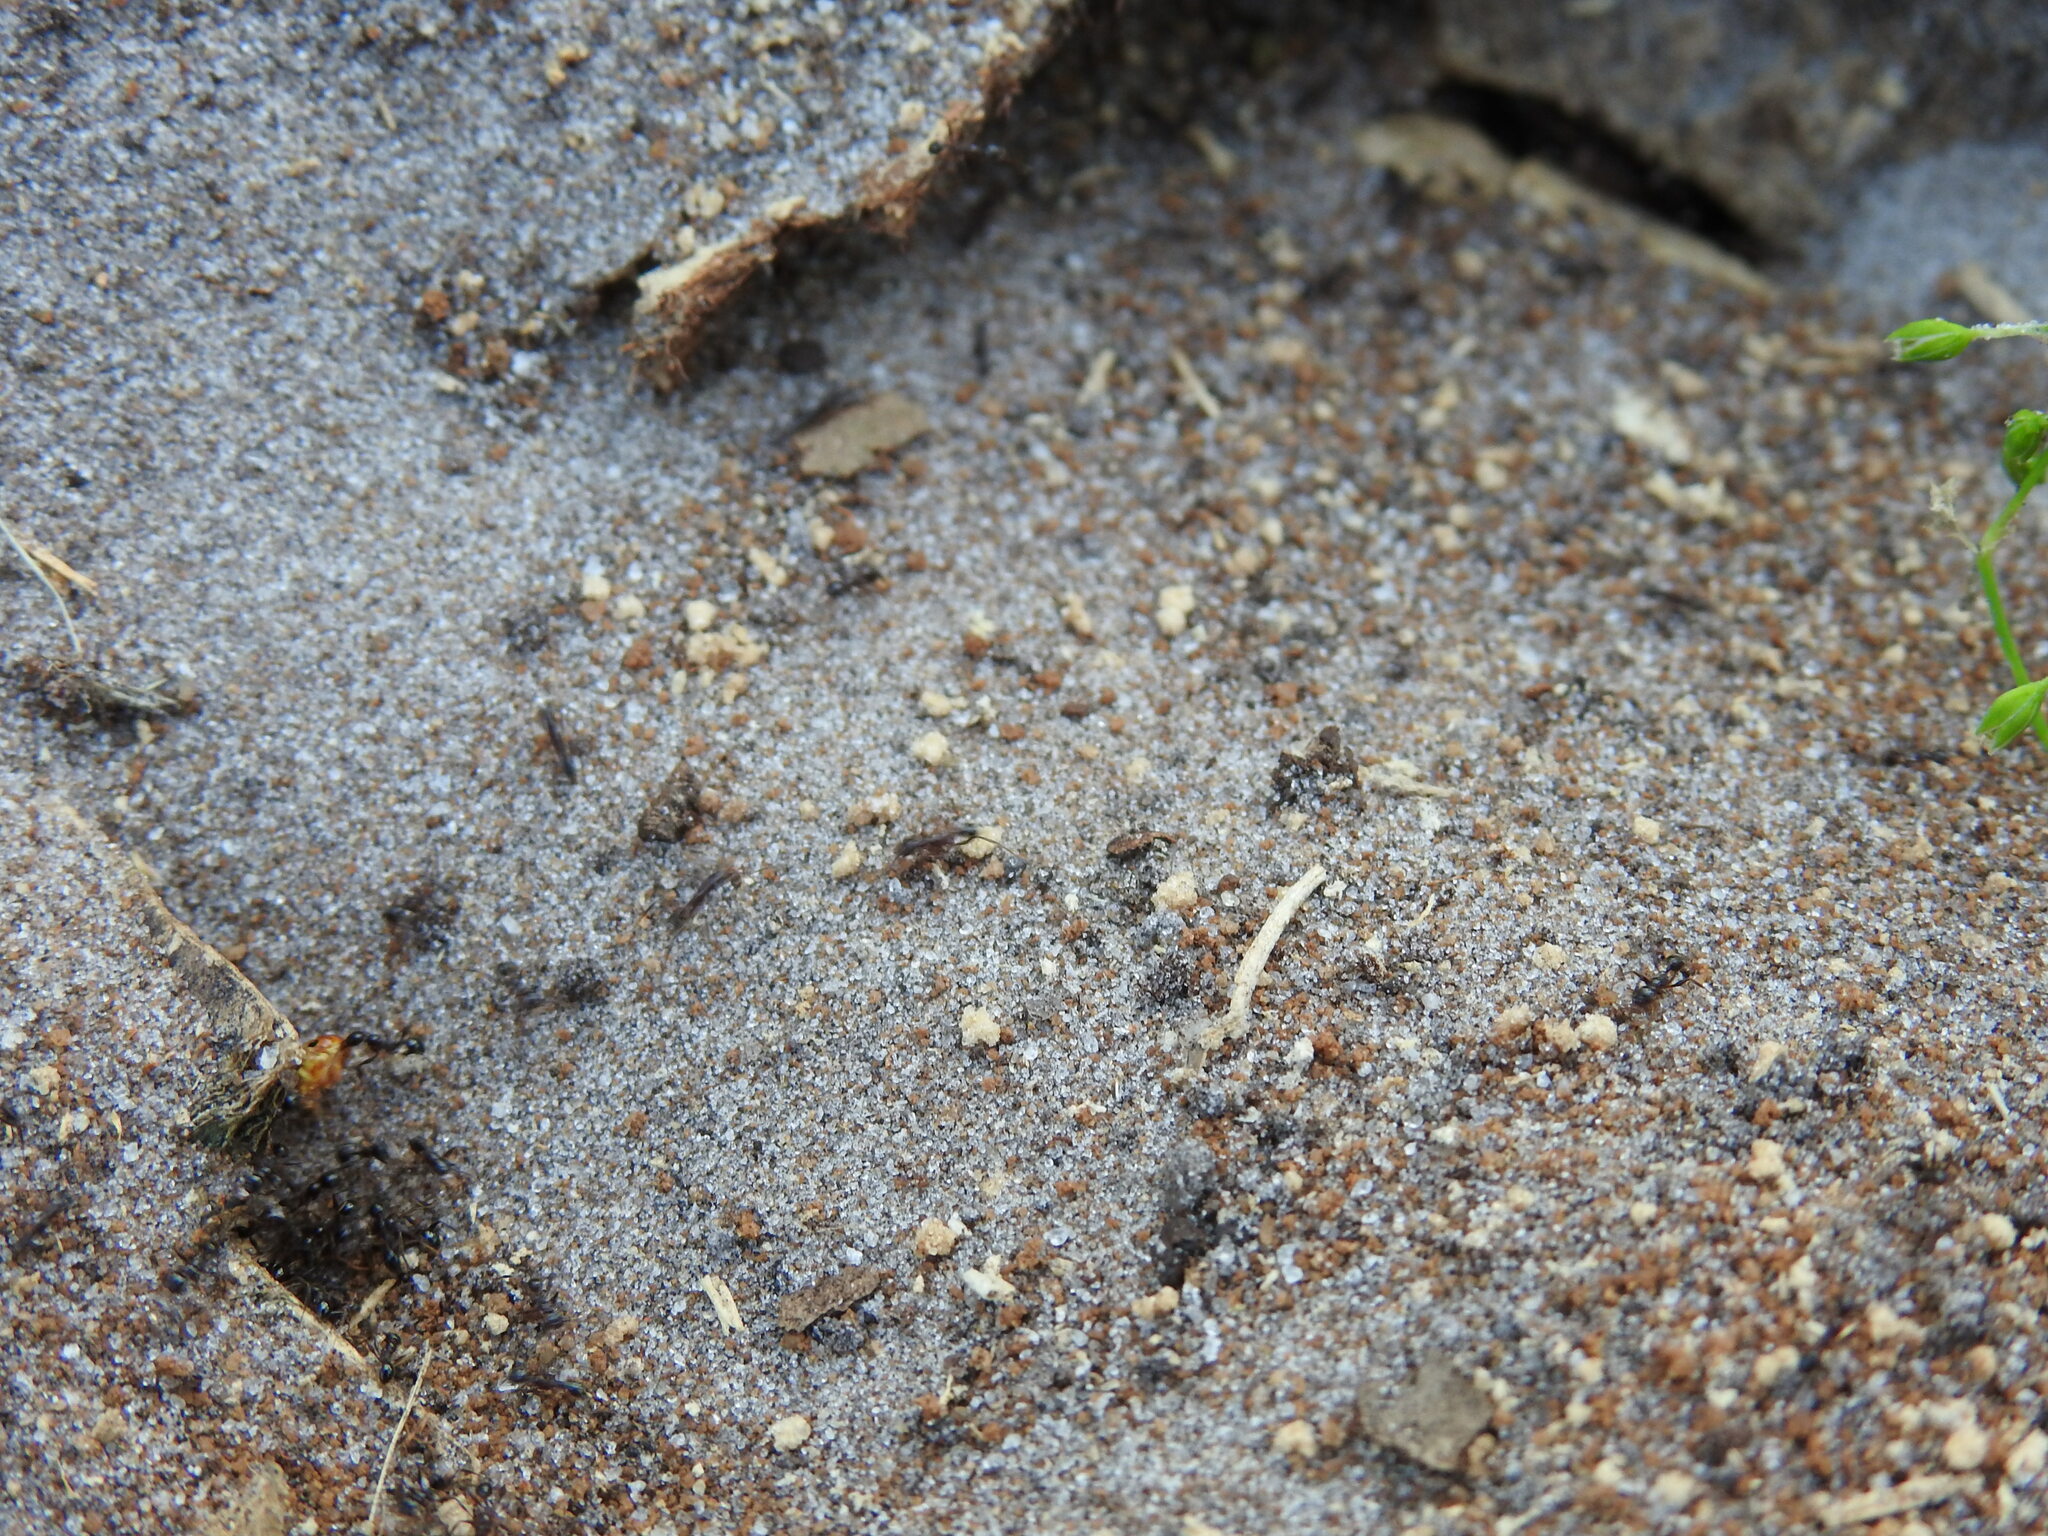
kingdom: Animalia
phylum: Arthropoda
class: Insecta
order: Hymenoptera
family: Formicidae
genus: Pheidole
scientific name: Pheidole obscurithorax
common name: Obscure big-headed ant
